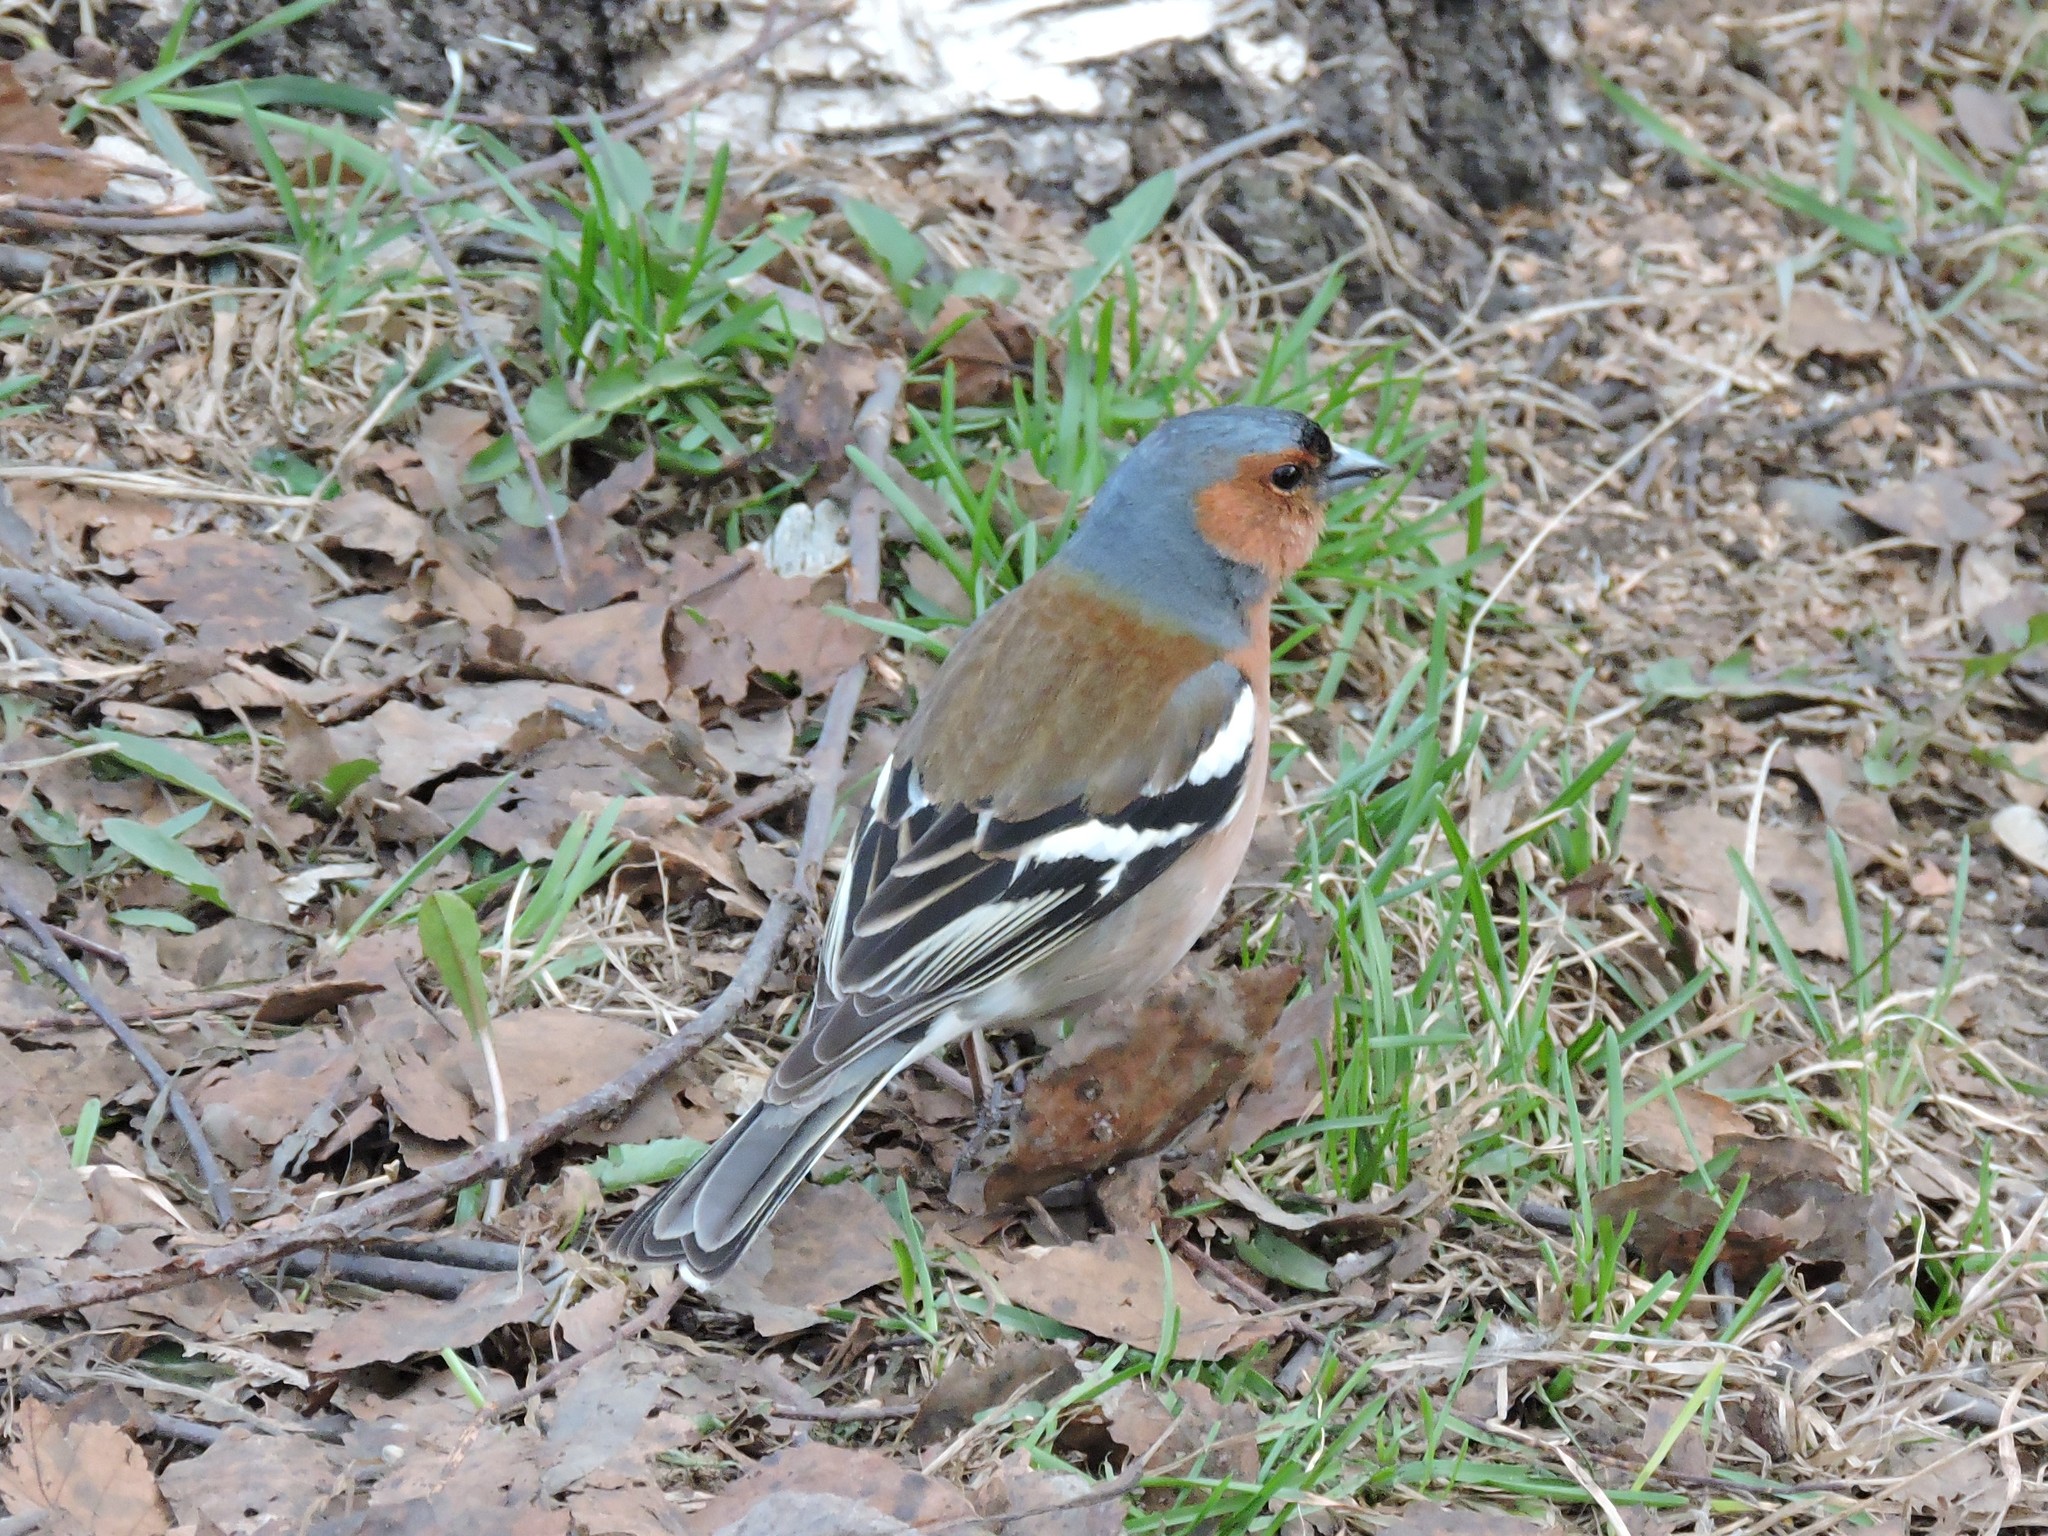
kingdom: Animalia
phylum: Chordata
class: Aves
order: Passeriformes
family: Fringillidae
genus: Fringilla
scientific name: Fringilla coelebs
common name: Common chaffinch
